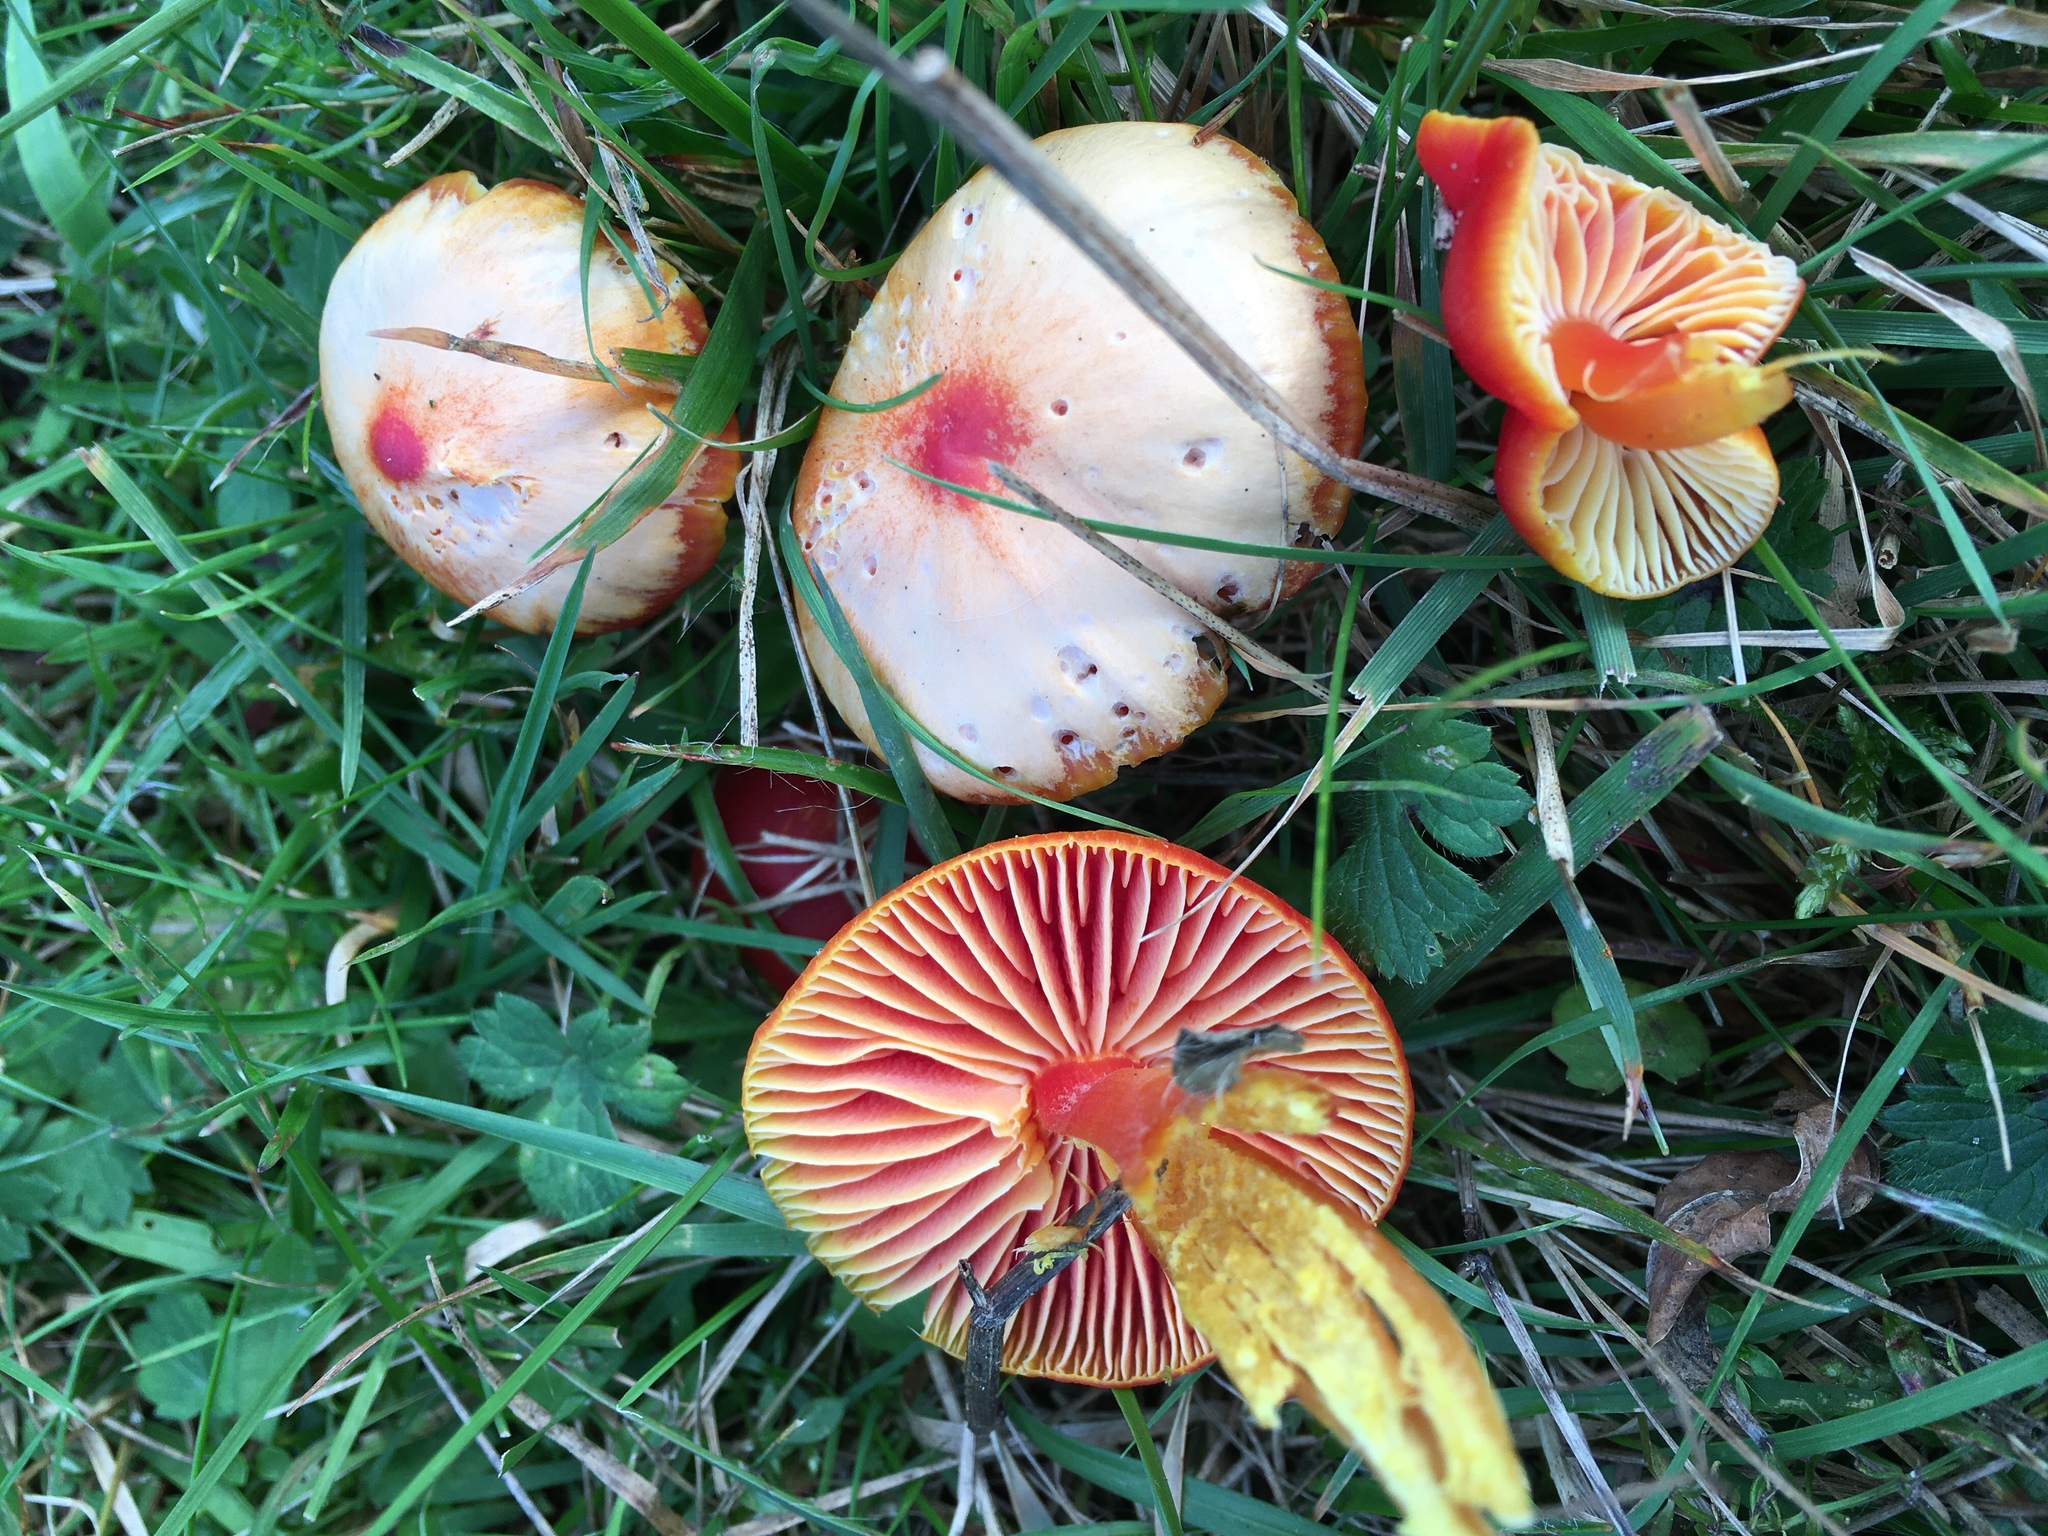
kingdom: Fungi
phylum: Basidiomycota
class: Agaricomycetes
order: Agaricales
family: Hygrophoraceae
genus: Hygrocybe
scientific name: Hygrocybe coccinea
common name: Scarlet hood
